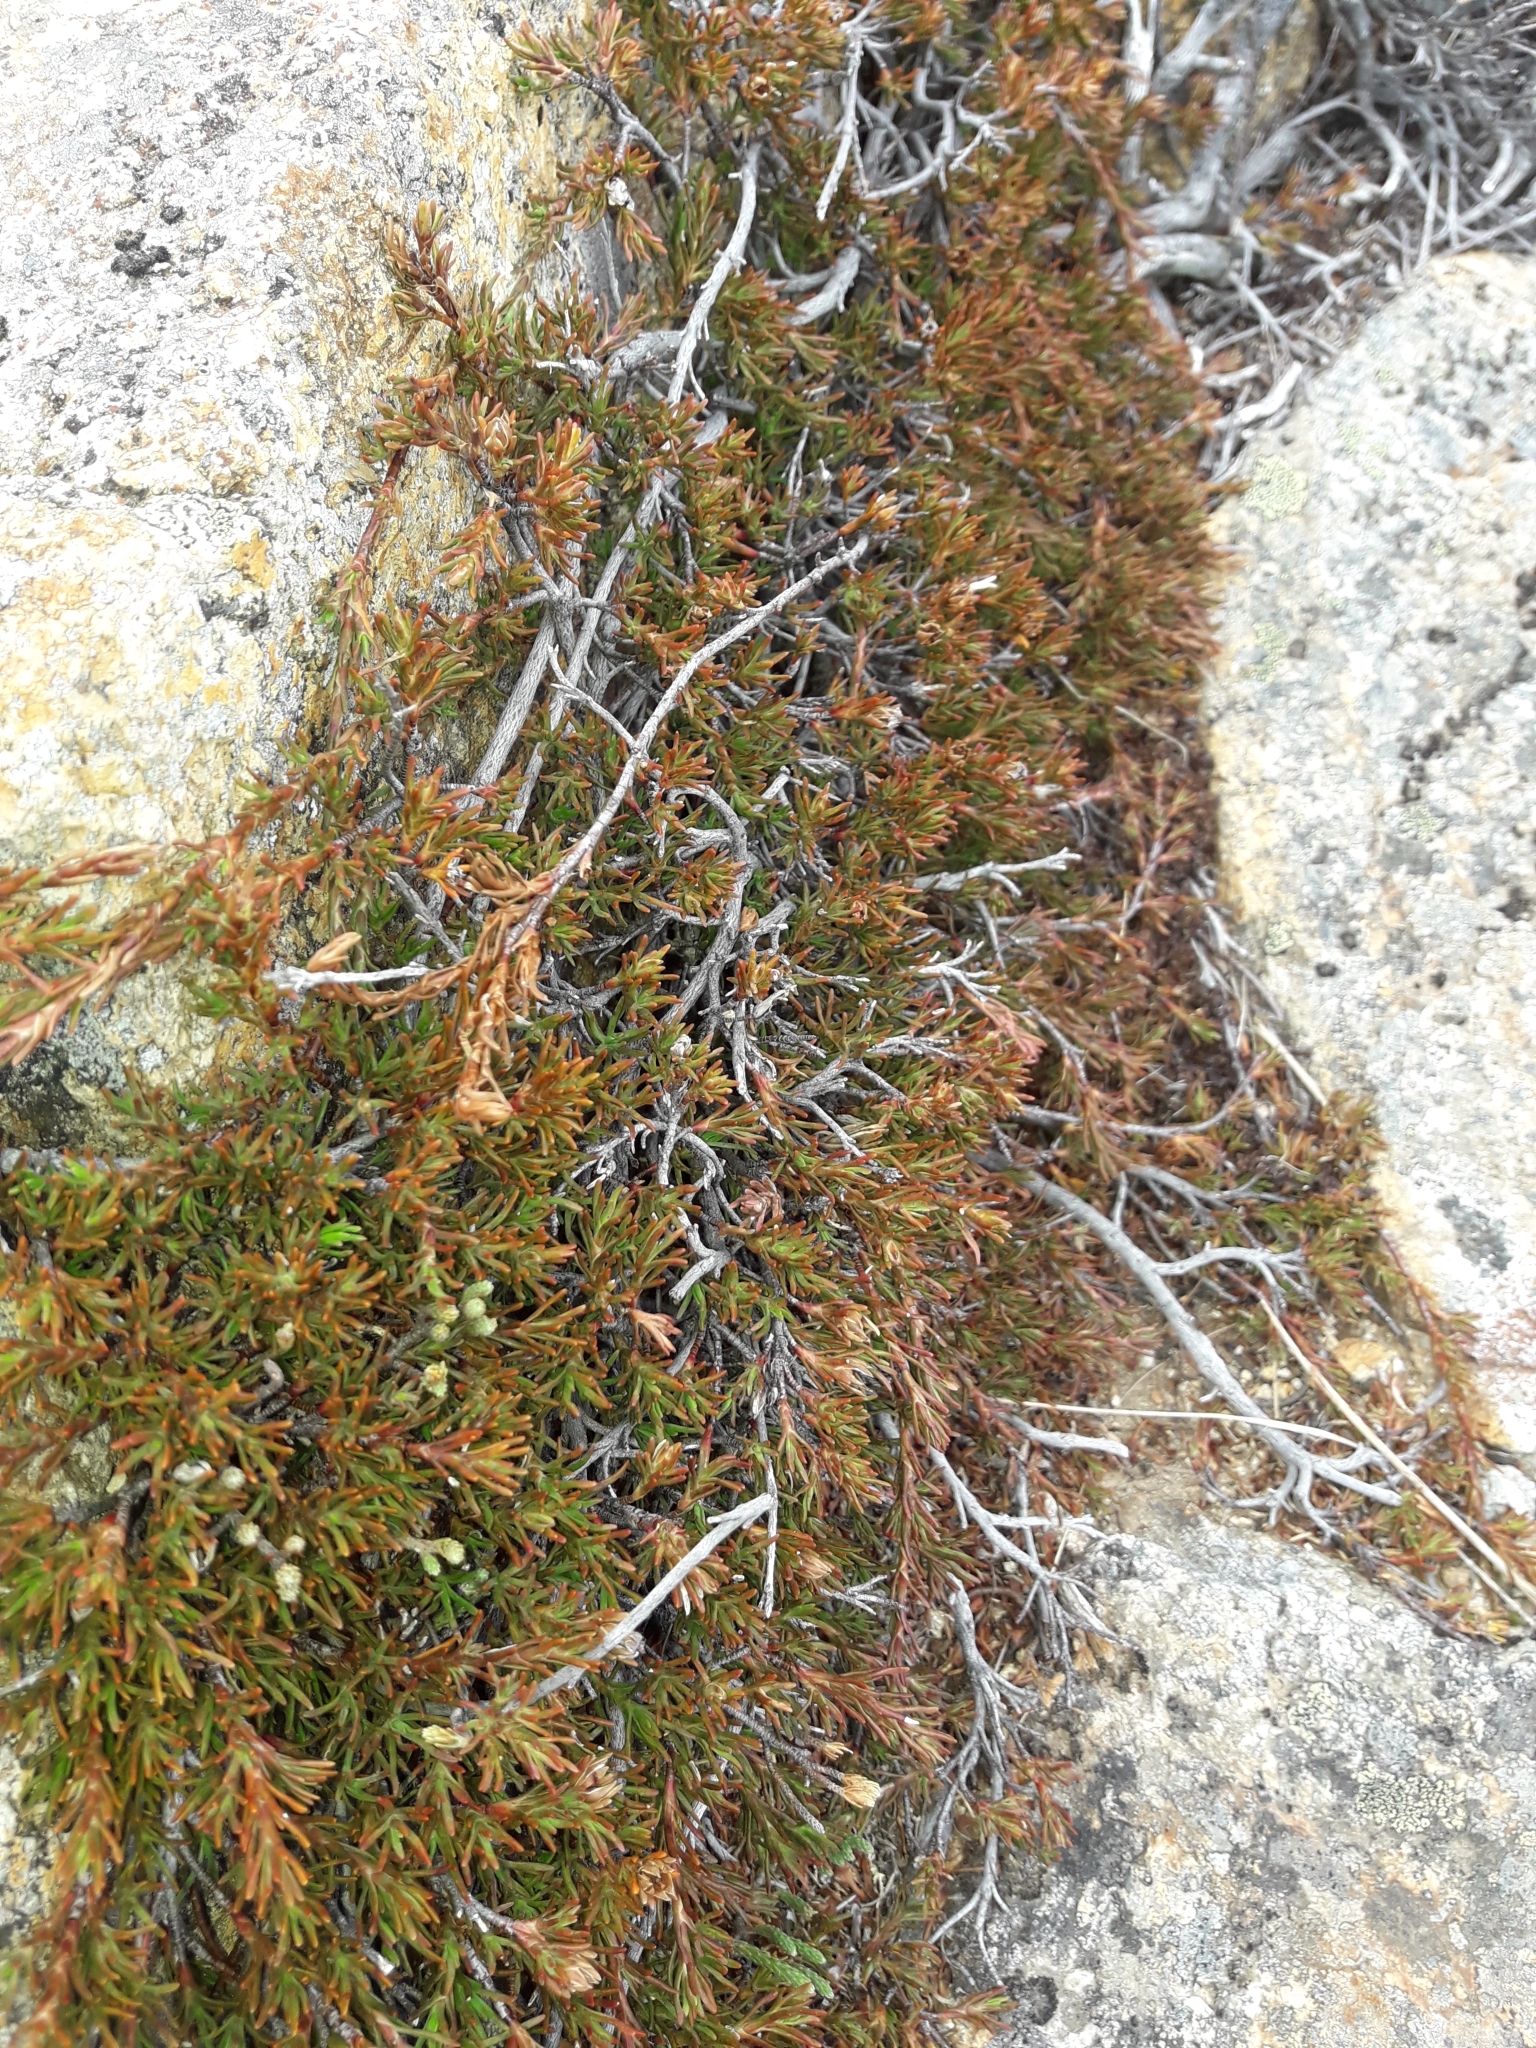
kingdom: Plantae
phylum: Tracheophyta
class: Magnoliopsida
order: Ericales
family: Ericaceae
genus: Dracophyllum
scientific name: Dracophyllum pronum
